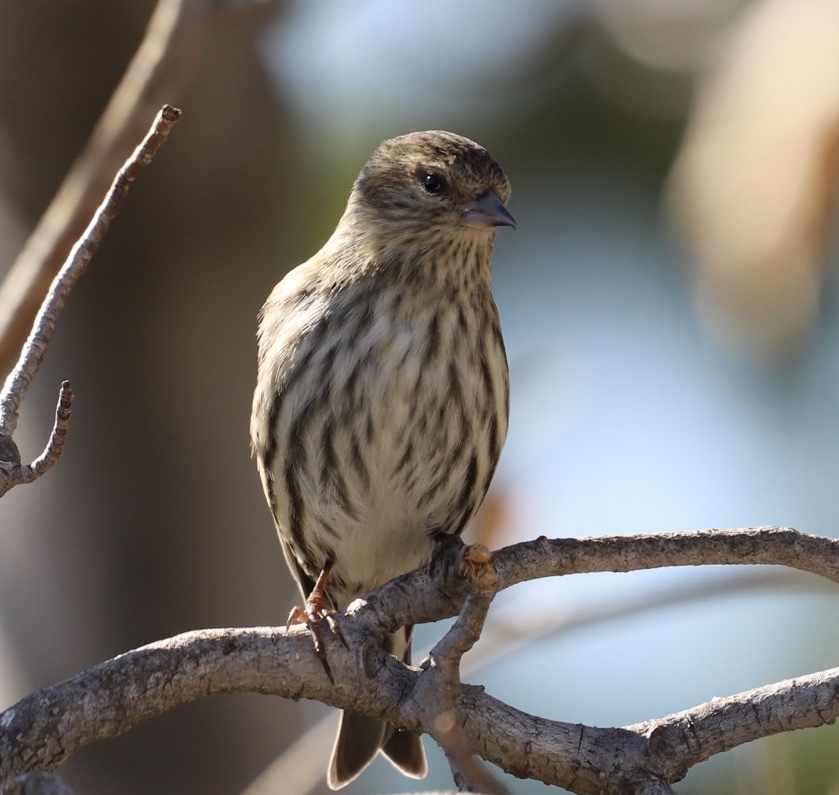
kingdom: Animalia
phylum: Chordata
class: Aves
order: Passeriformes
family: Fringillidae
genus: Spinus
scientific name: Spinus pinus
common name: Pine siskin
